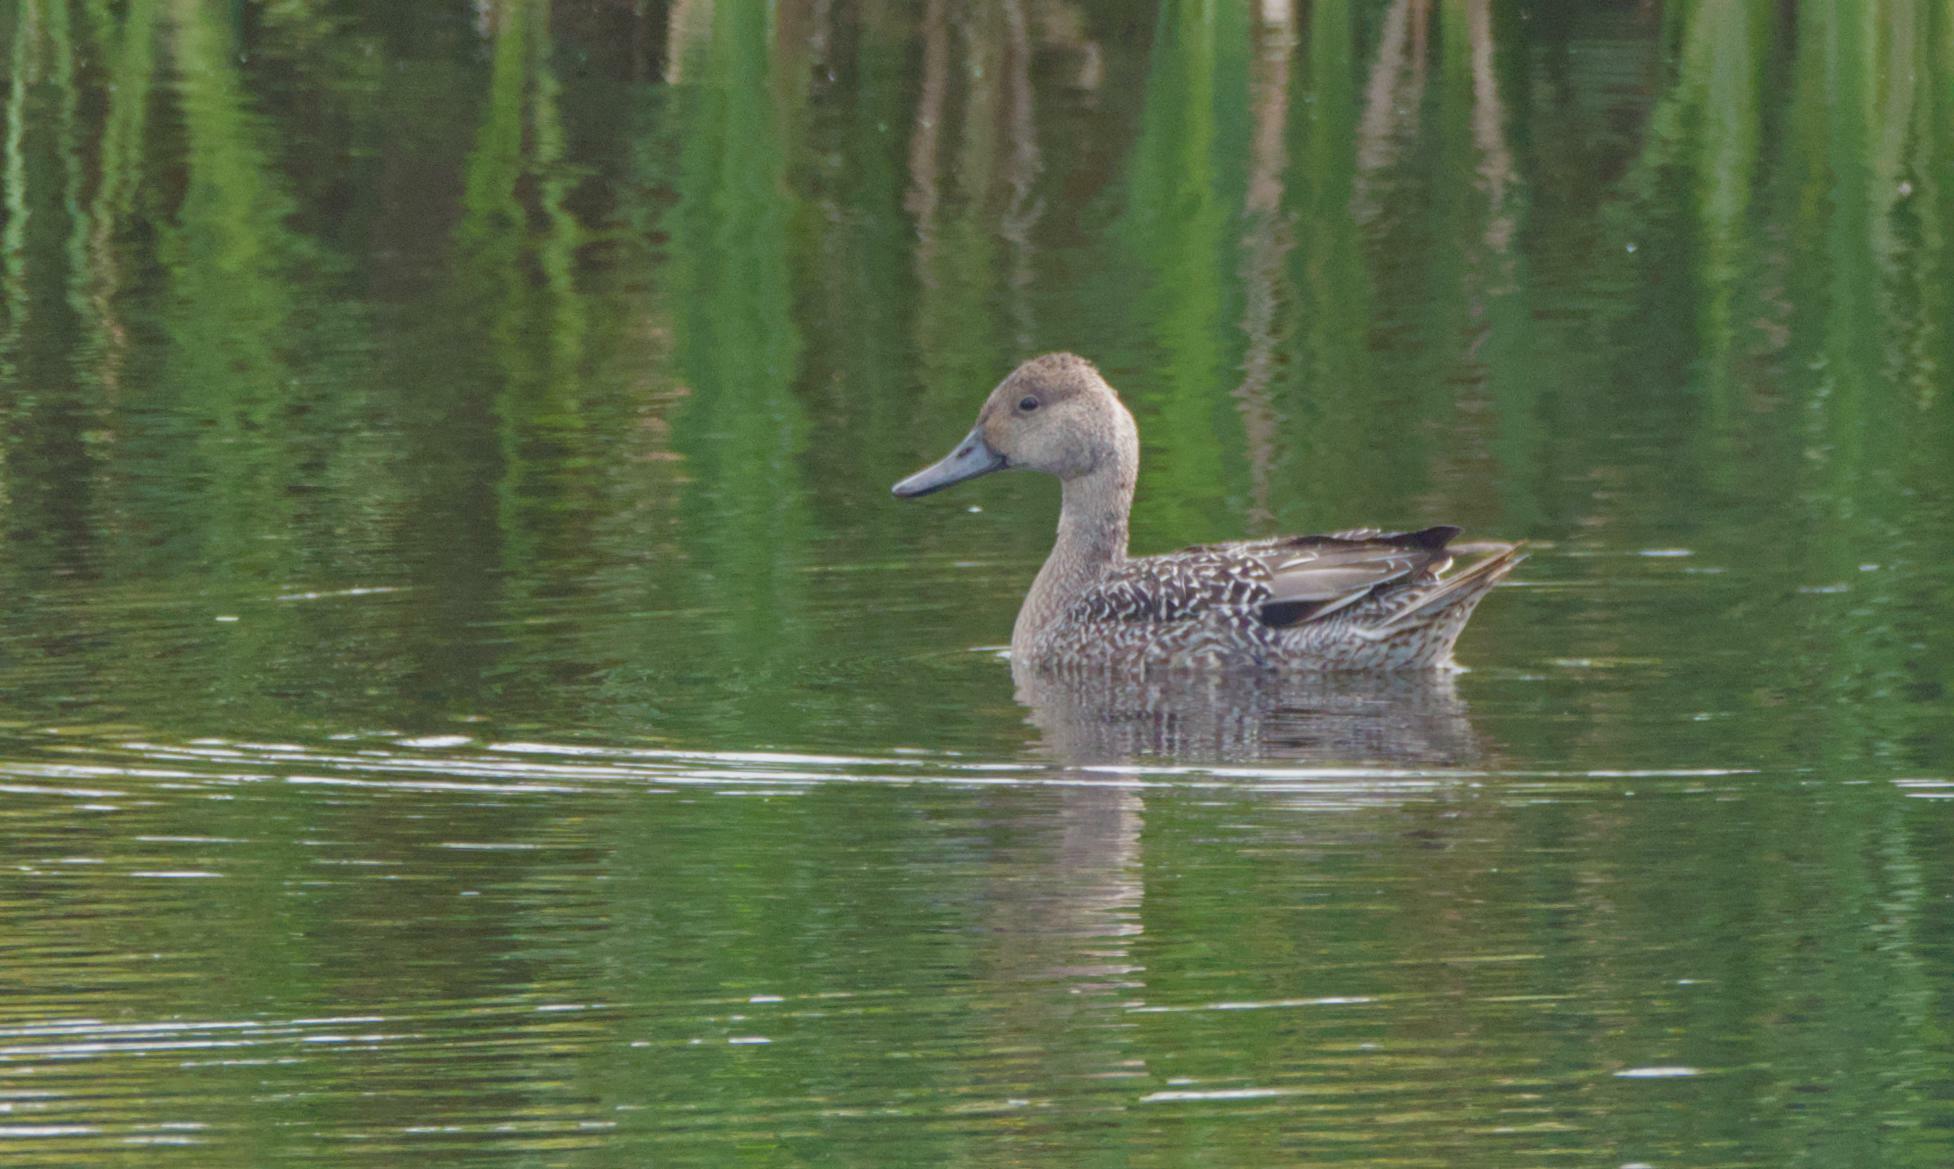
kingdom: Animalia
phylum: Chordata
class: Aves
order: Anseriformes
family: Anatidae
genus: Anas
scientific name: Anas acuta
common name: Northern pintail
